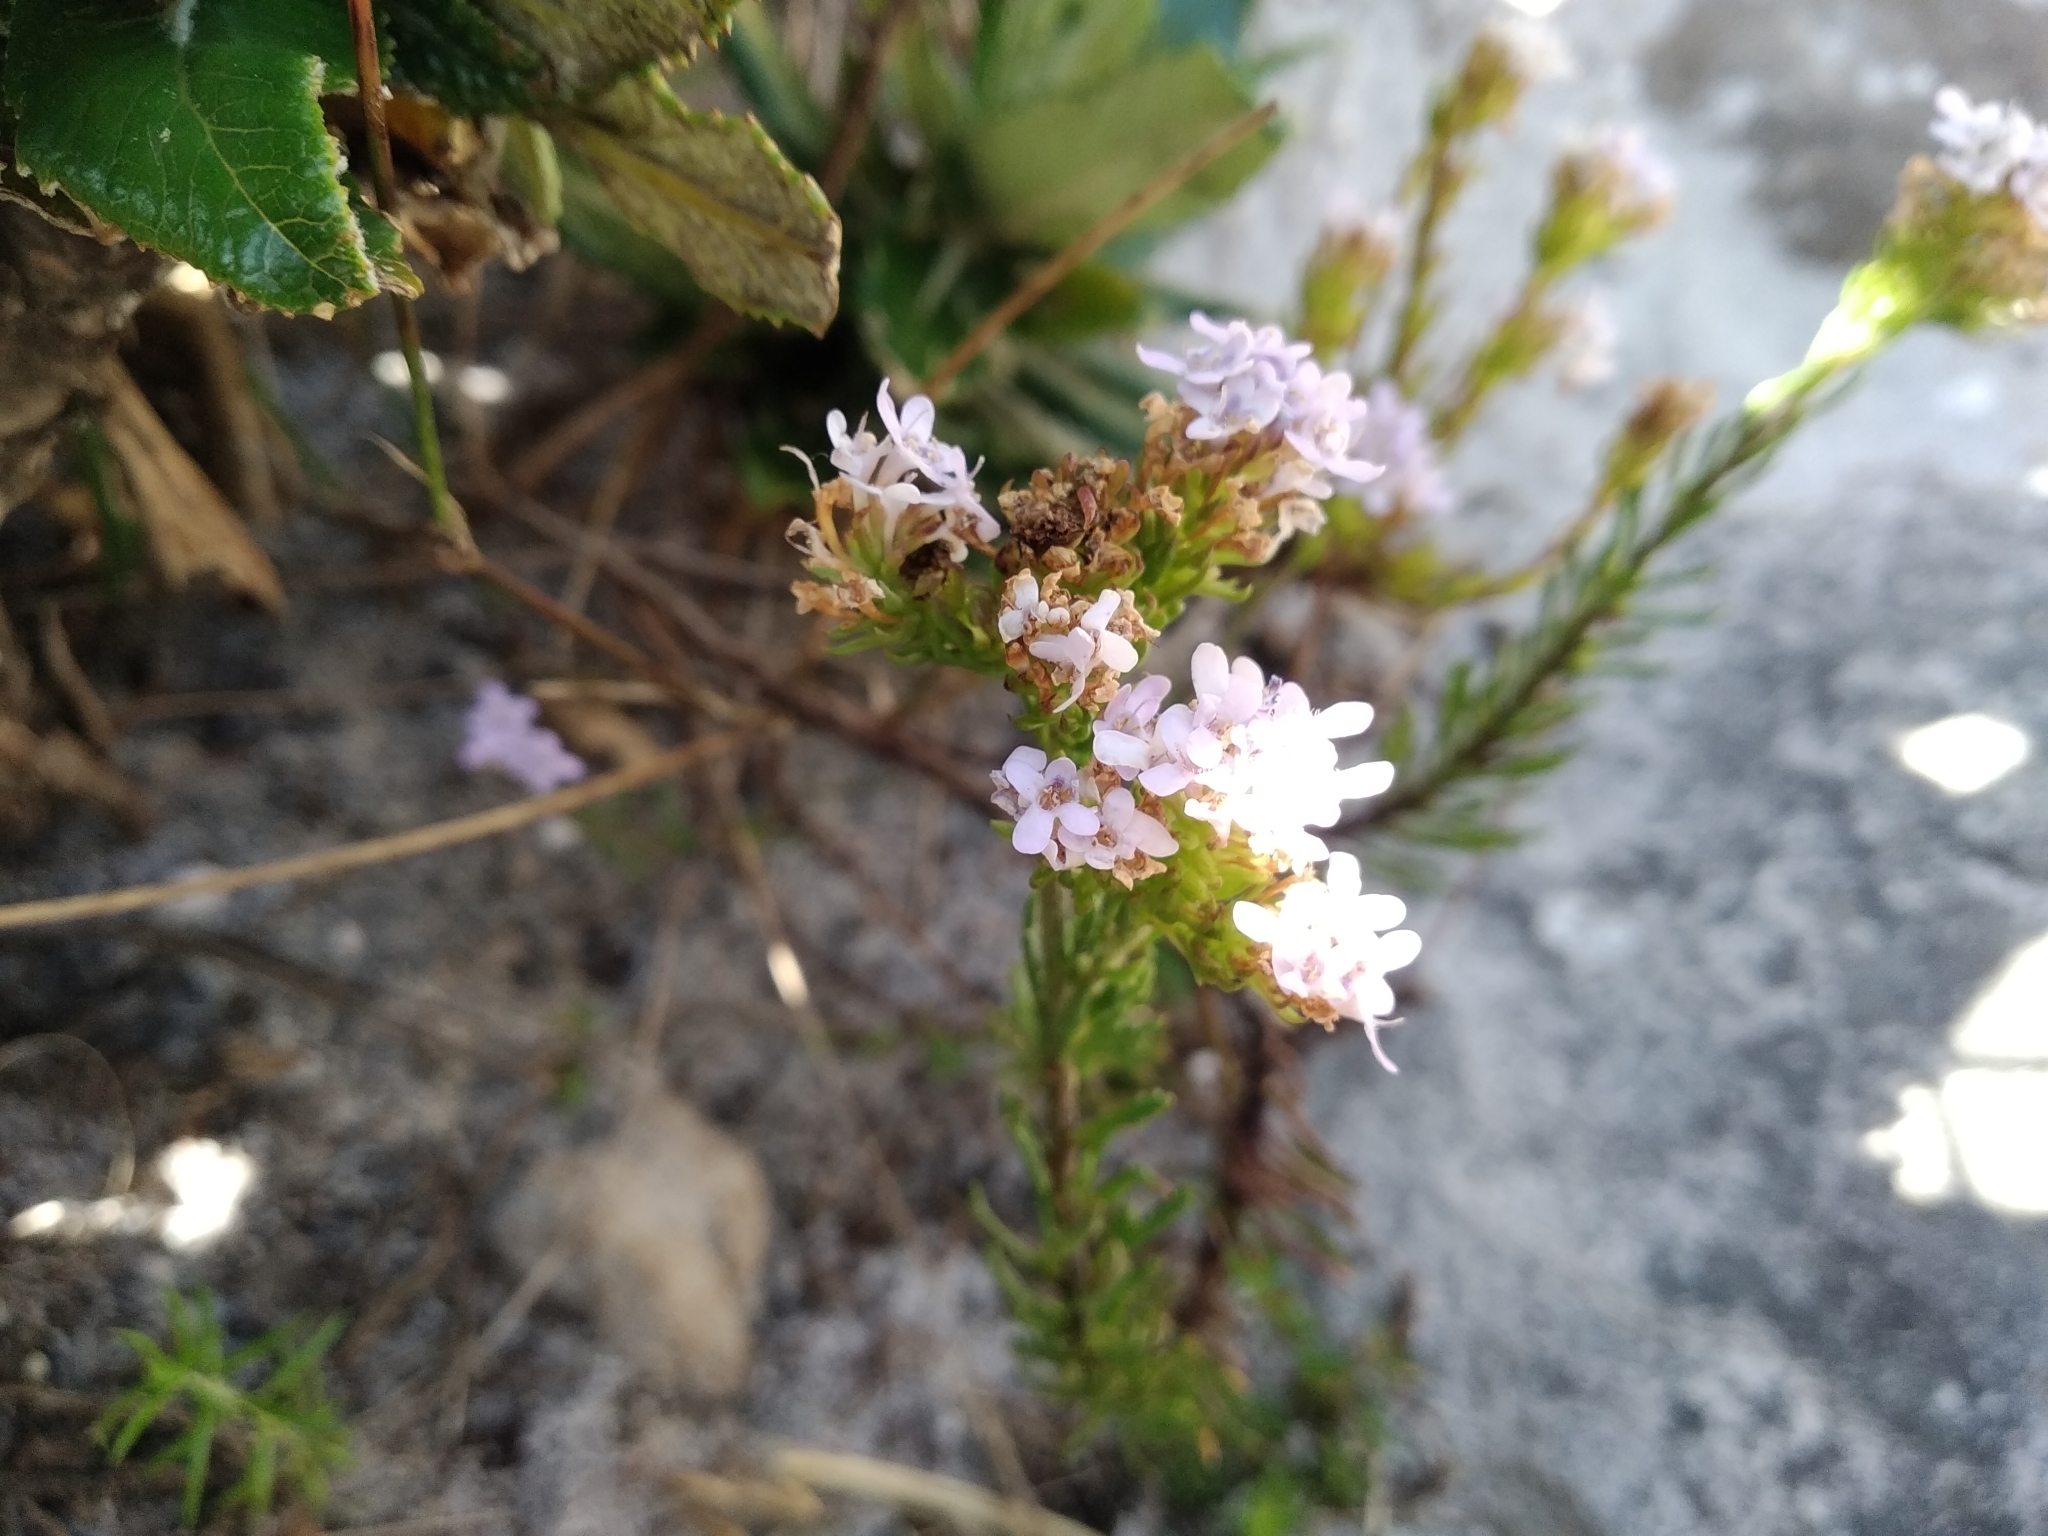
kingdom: Plantae
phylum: Tracheophyta
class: Magnoliopsida
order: Lamiales
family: Scrophulariaceae
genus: Pseudoselago
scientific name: Pseudoselago spuria
